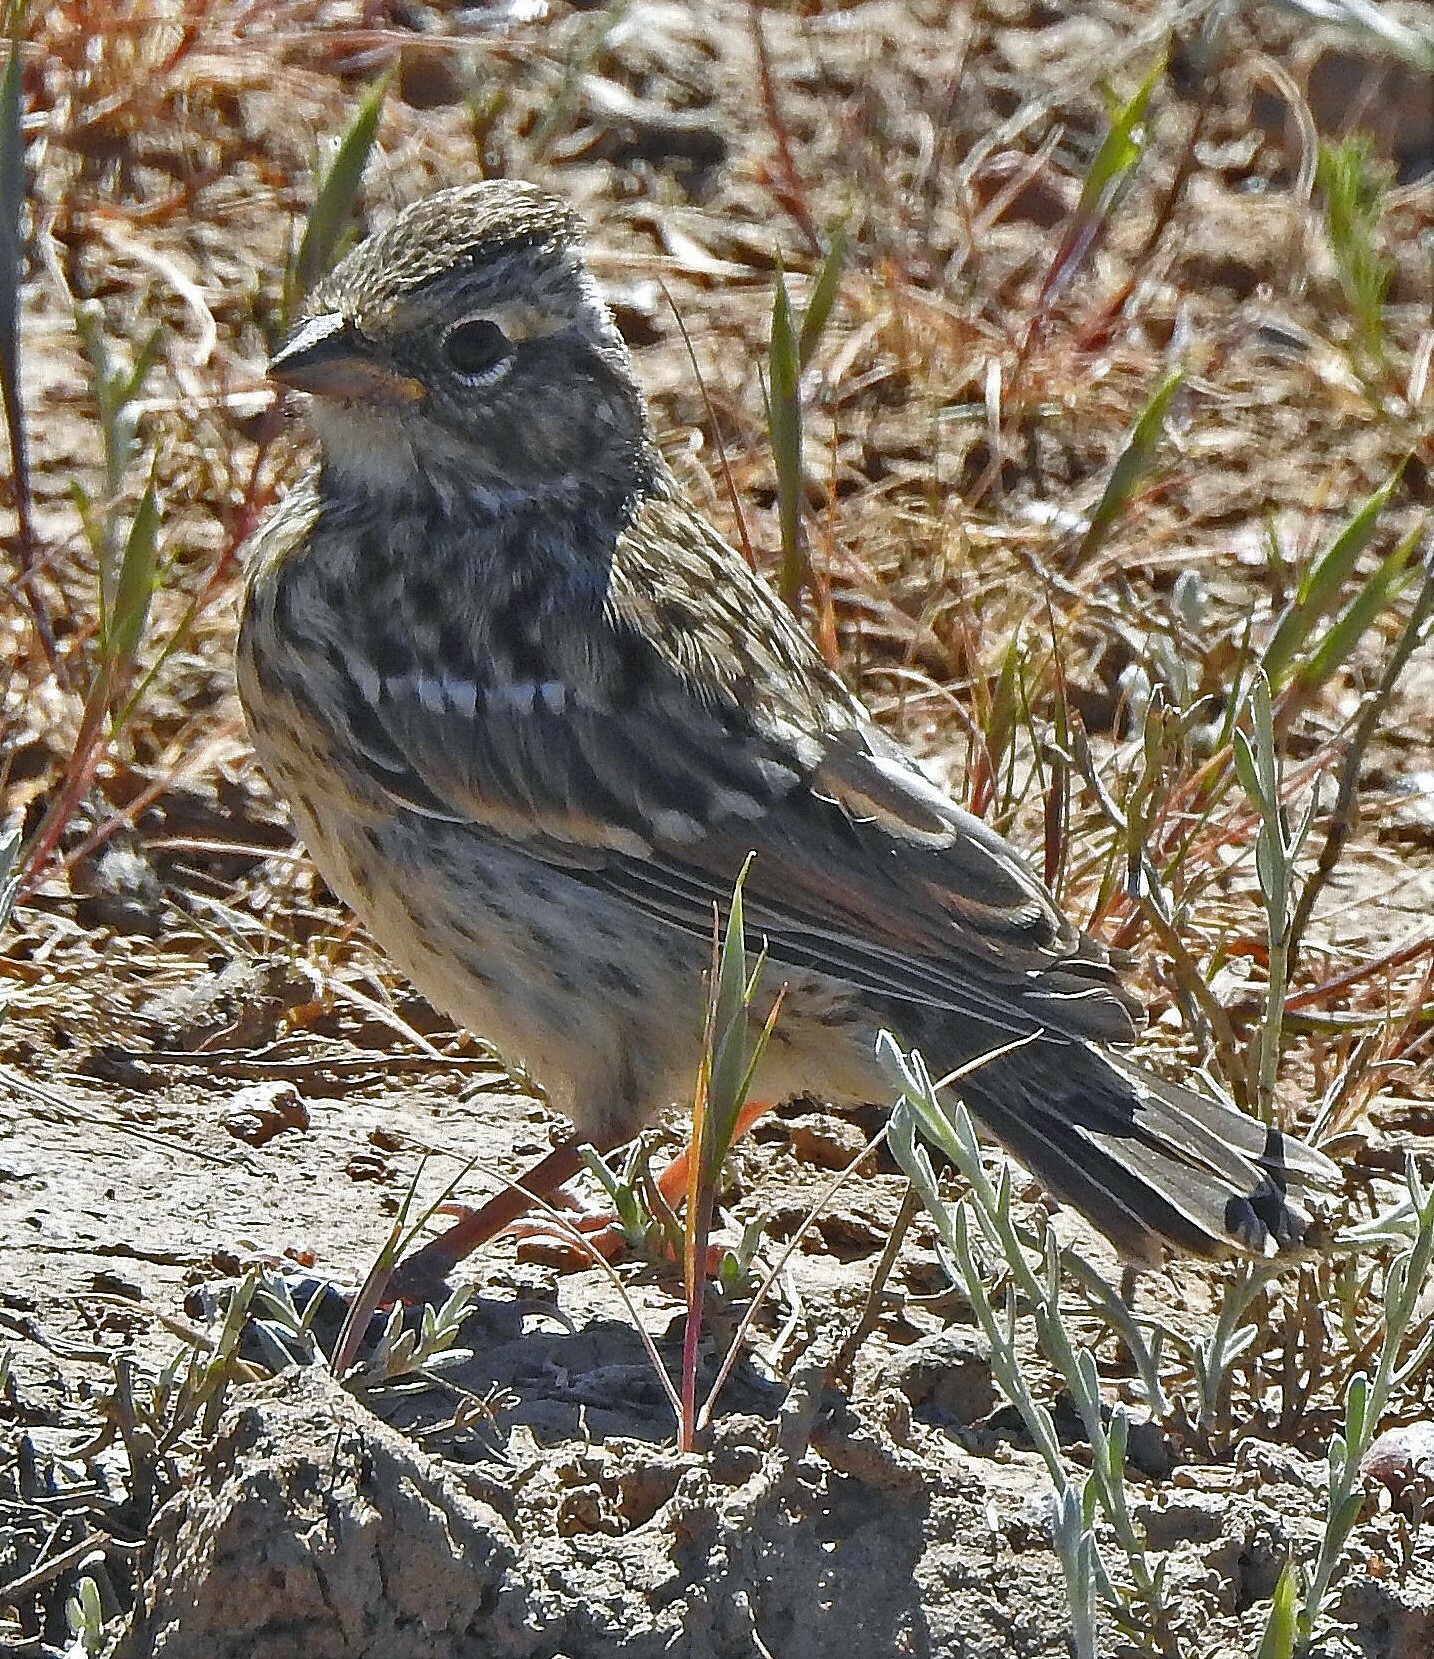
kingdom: Animalia
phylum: Chordata
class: Aves
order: Passeriformes
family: Passerellidae
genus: Zonotrichia
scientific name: Zonotrichia capensis
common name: Rufous-collared sparrow
